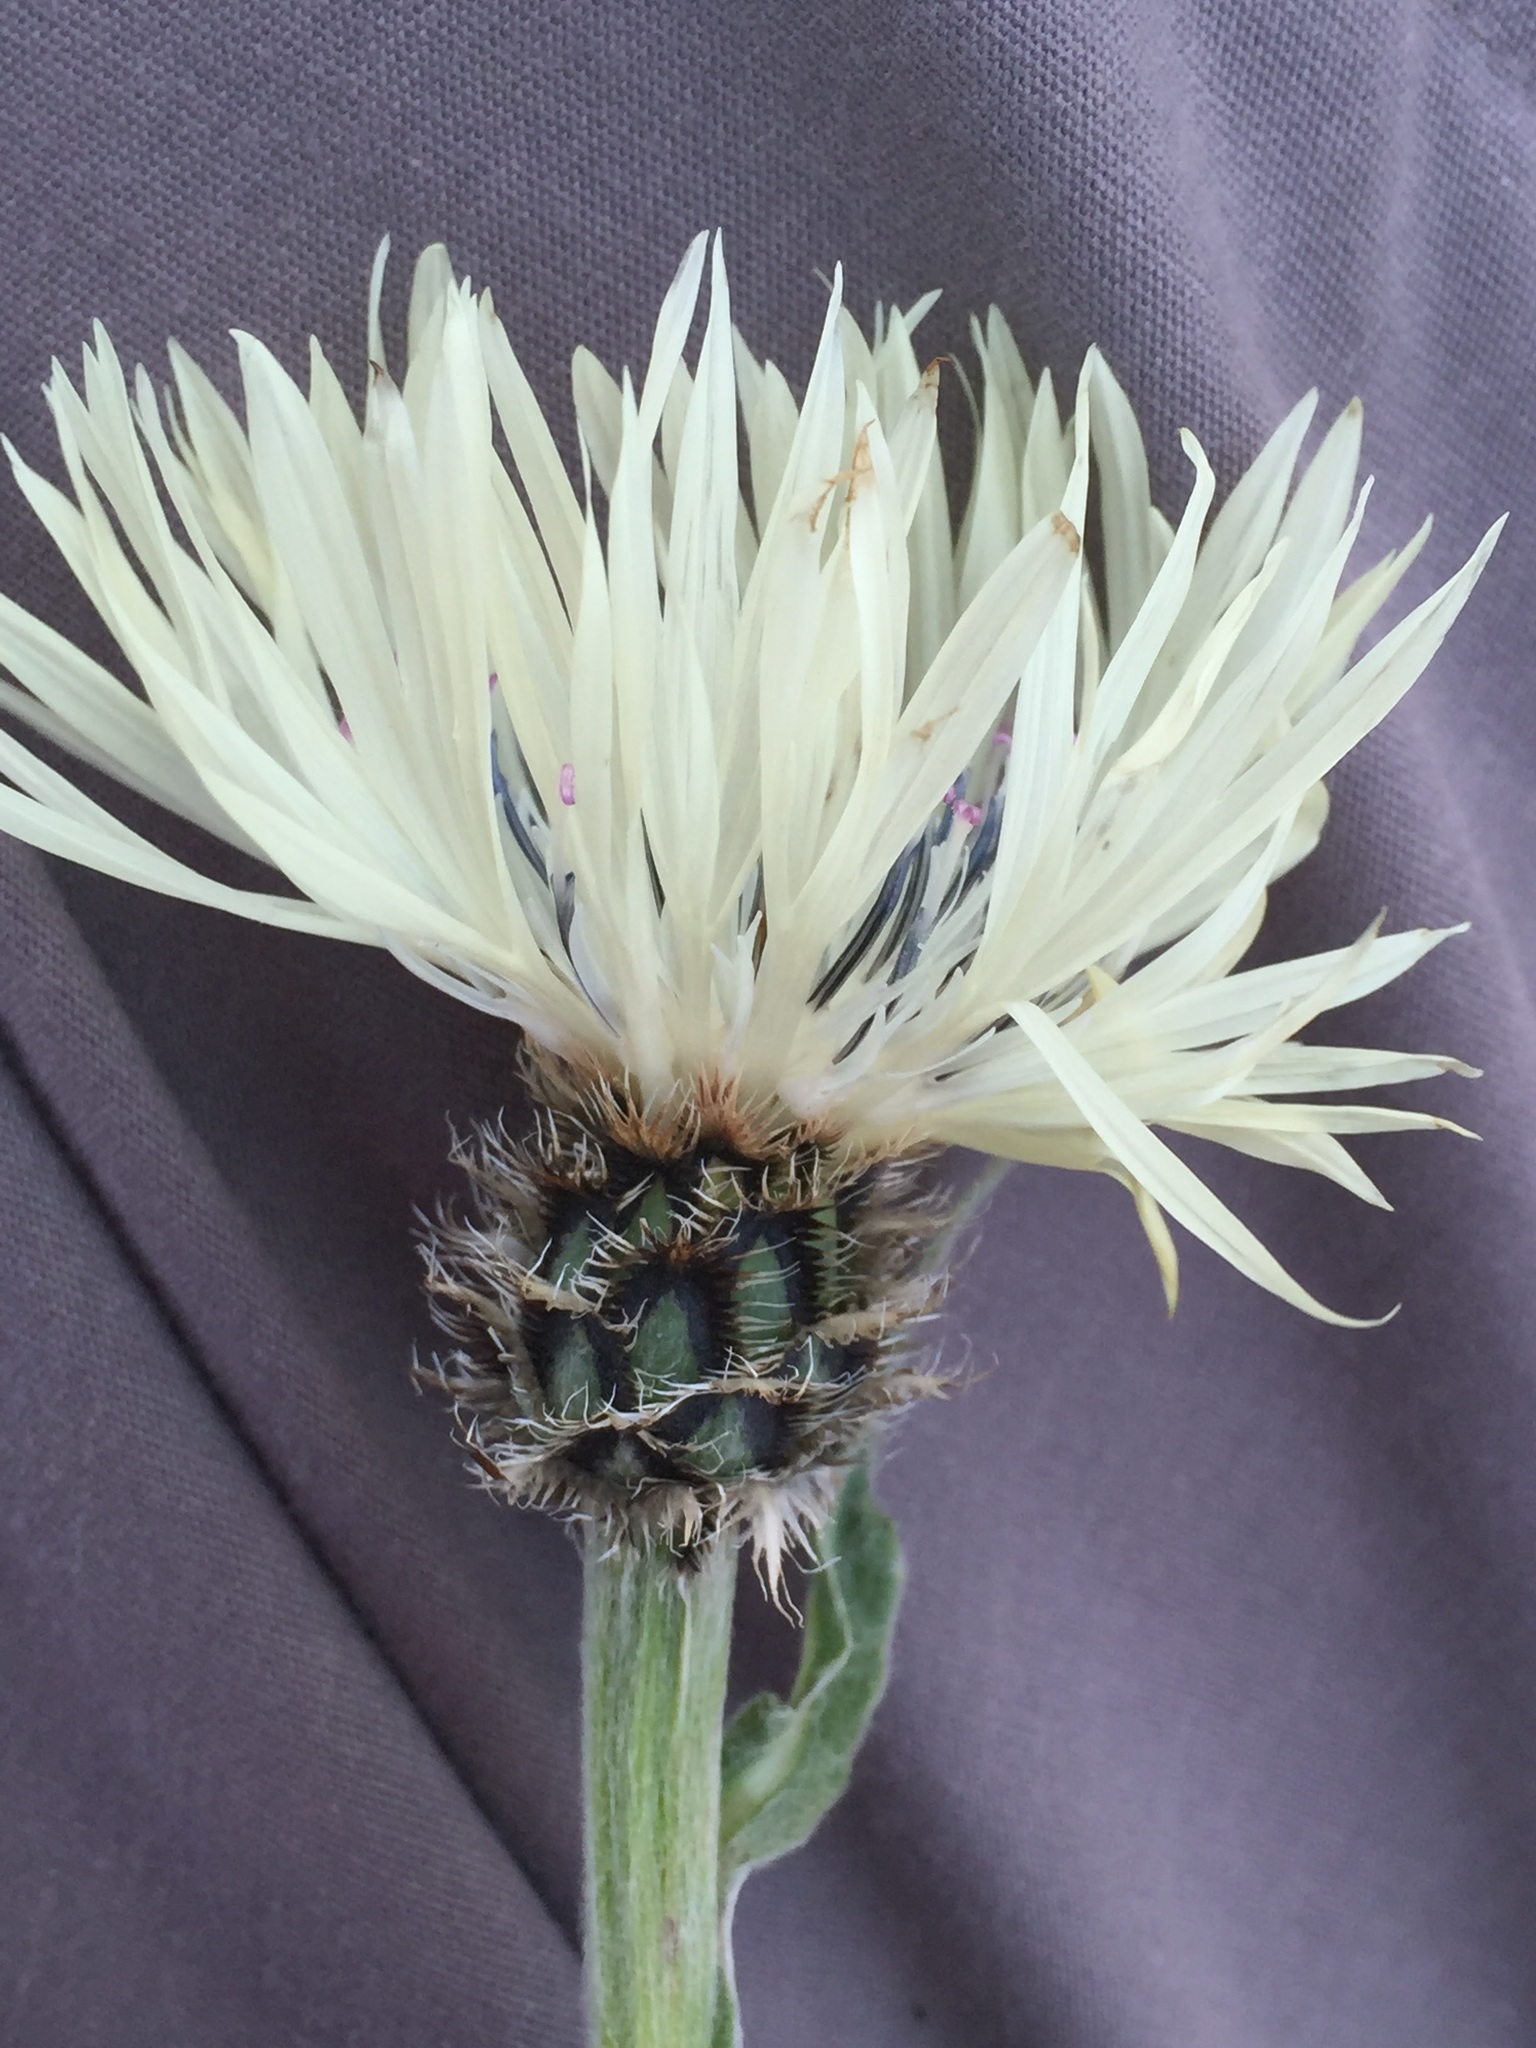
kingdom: Plantae
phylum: Tracheophyta
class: Magnoliopsida
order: Asterales
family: Asteraceae
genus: Centaurea
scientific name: Centaurea cheiranthifolia
